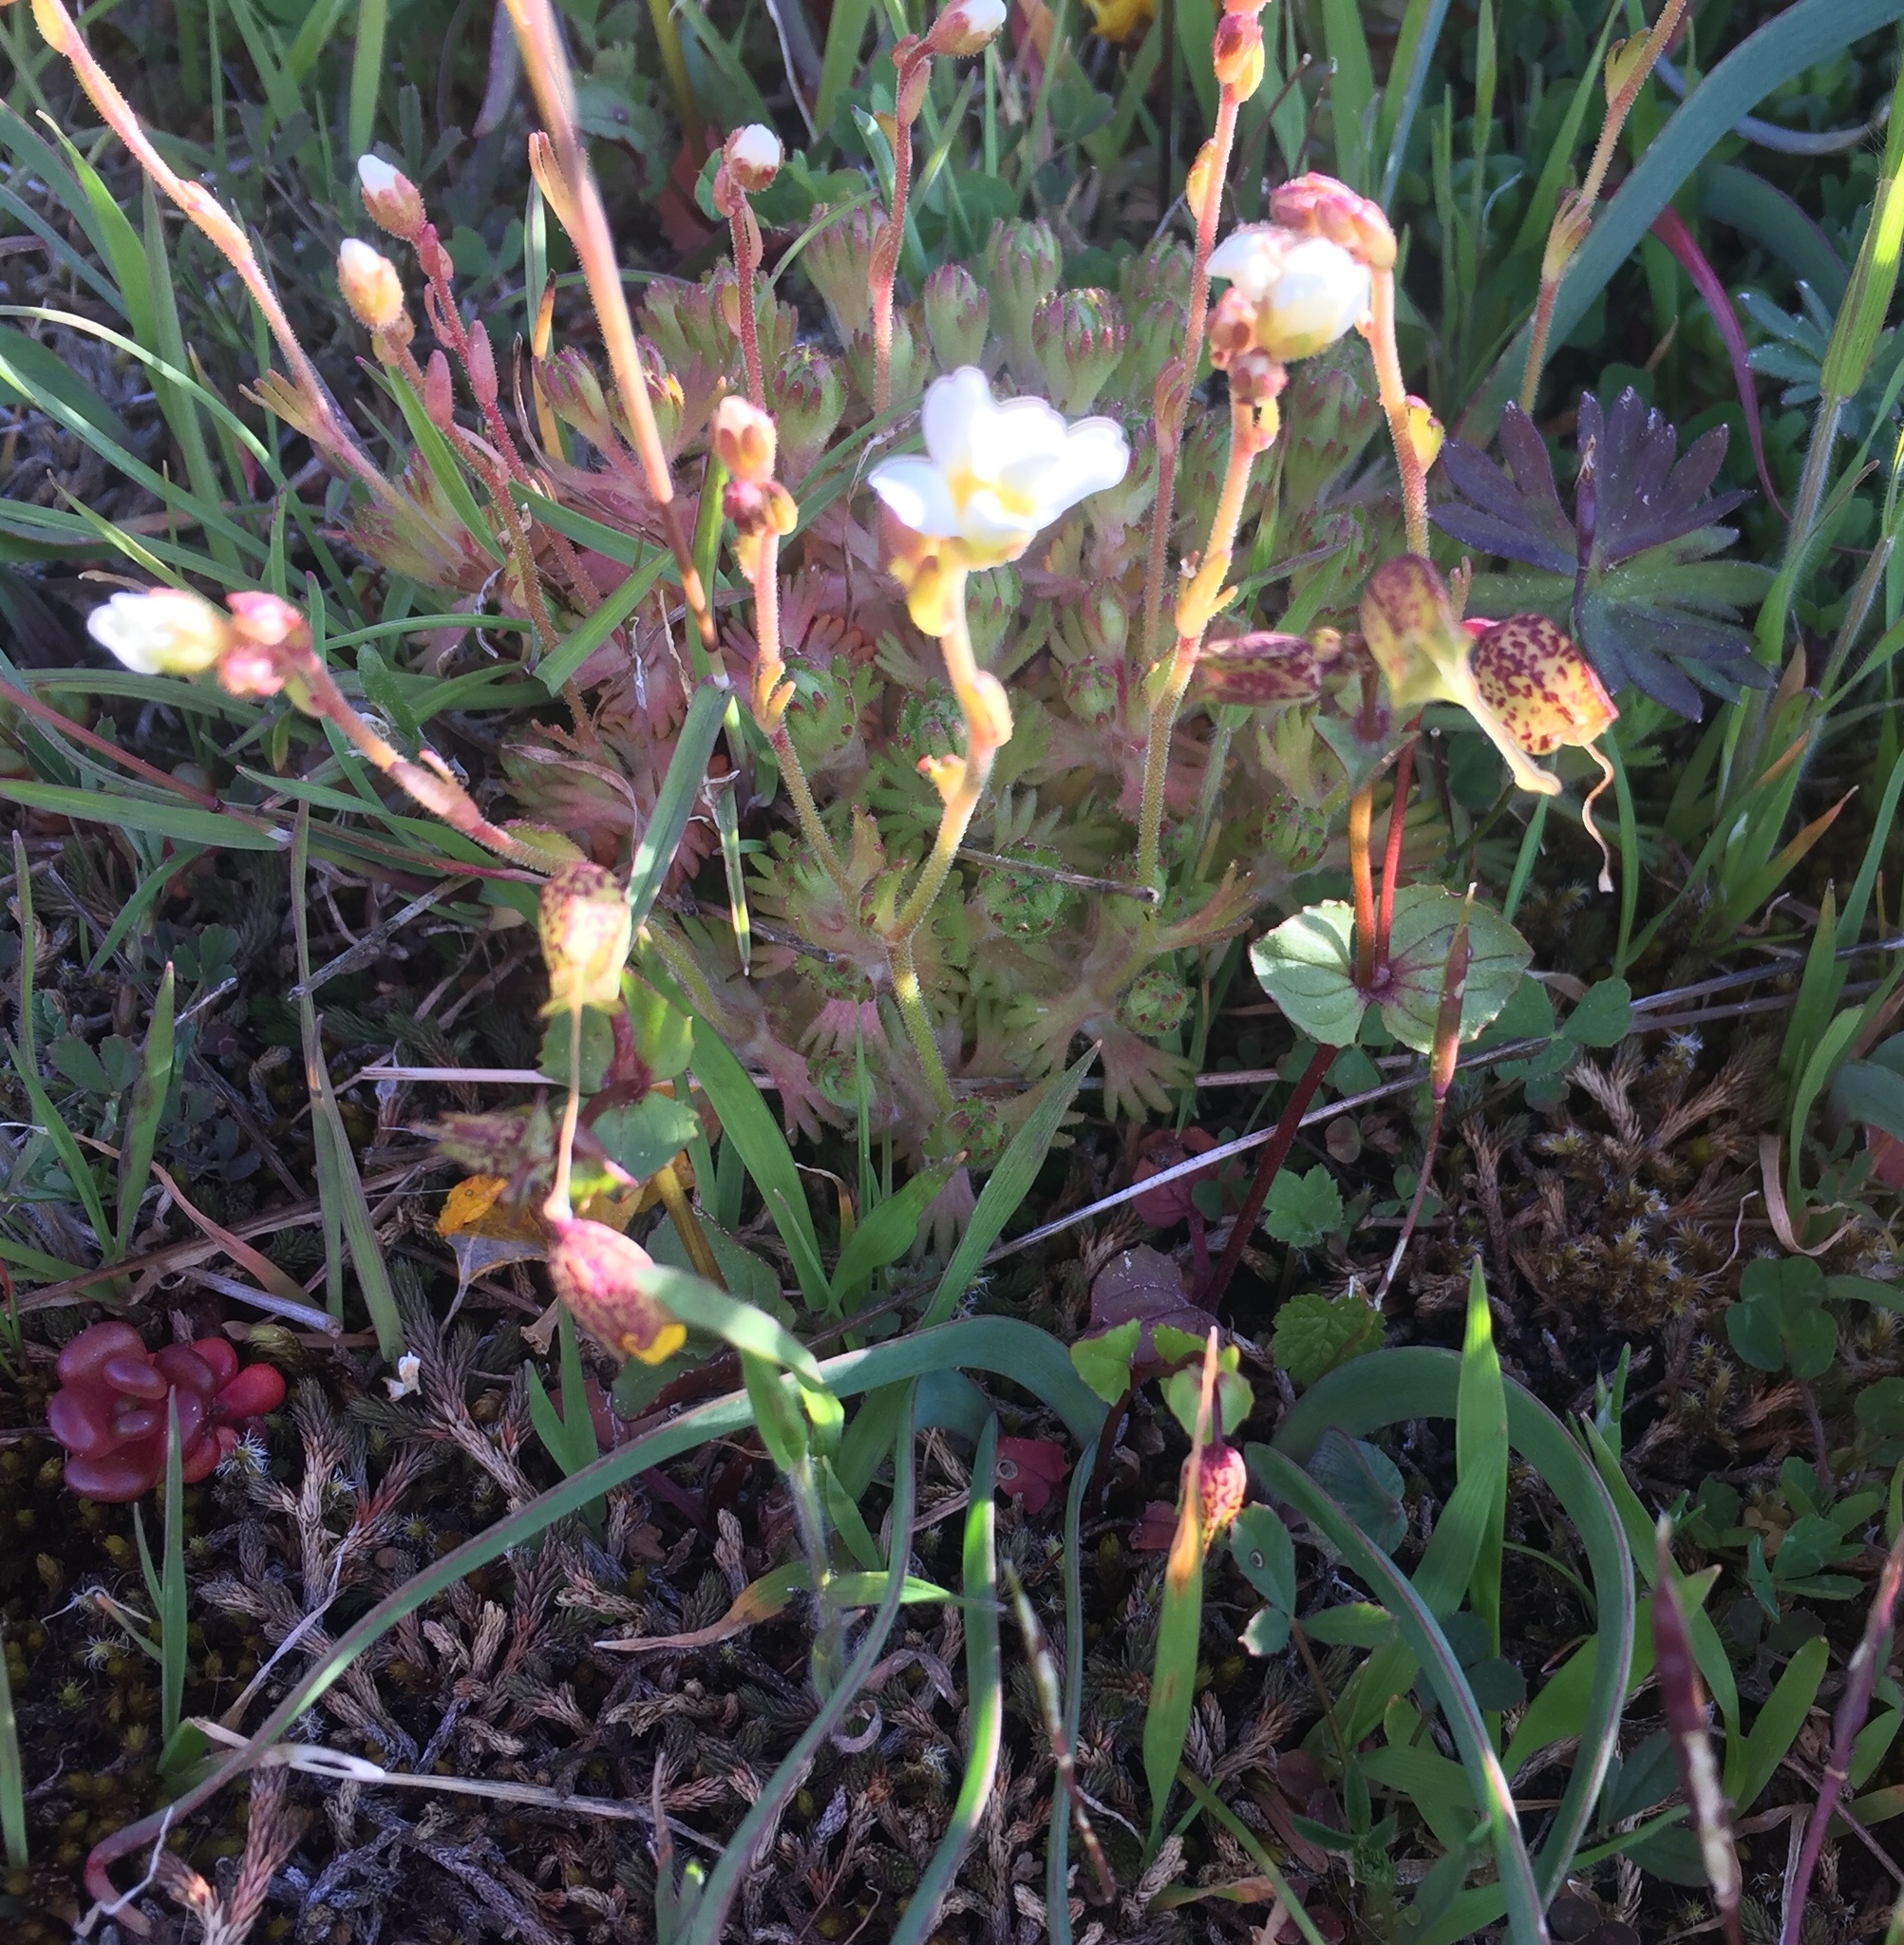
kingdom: Plantae
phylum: Tracheophyta
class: Magnoliopsida
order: Saxifragales
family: Saxifragaceae
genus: Saxifraga
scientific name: Saxifraga cespitosa
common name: Tufted saxifrage
